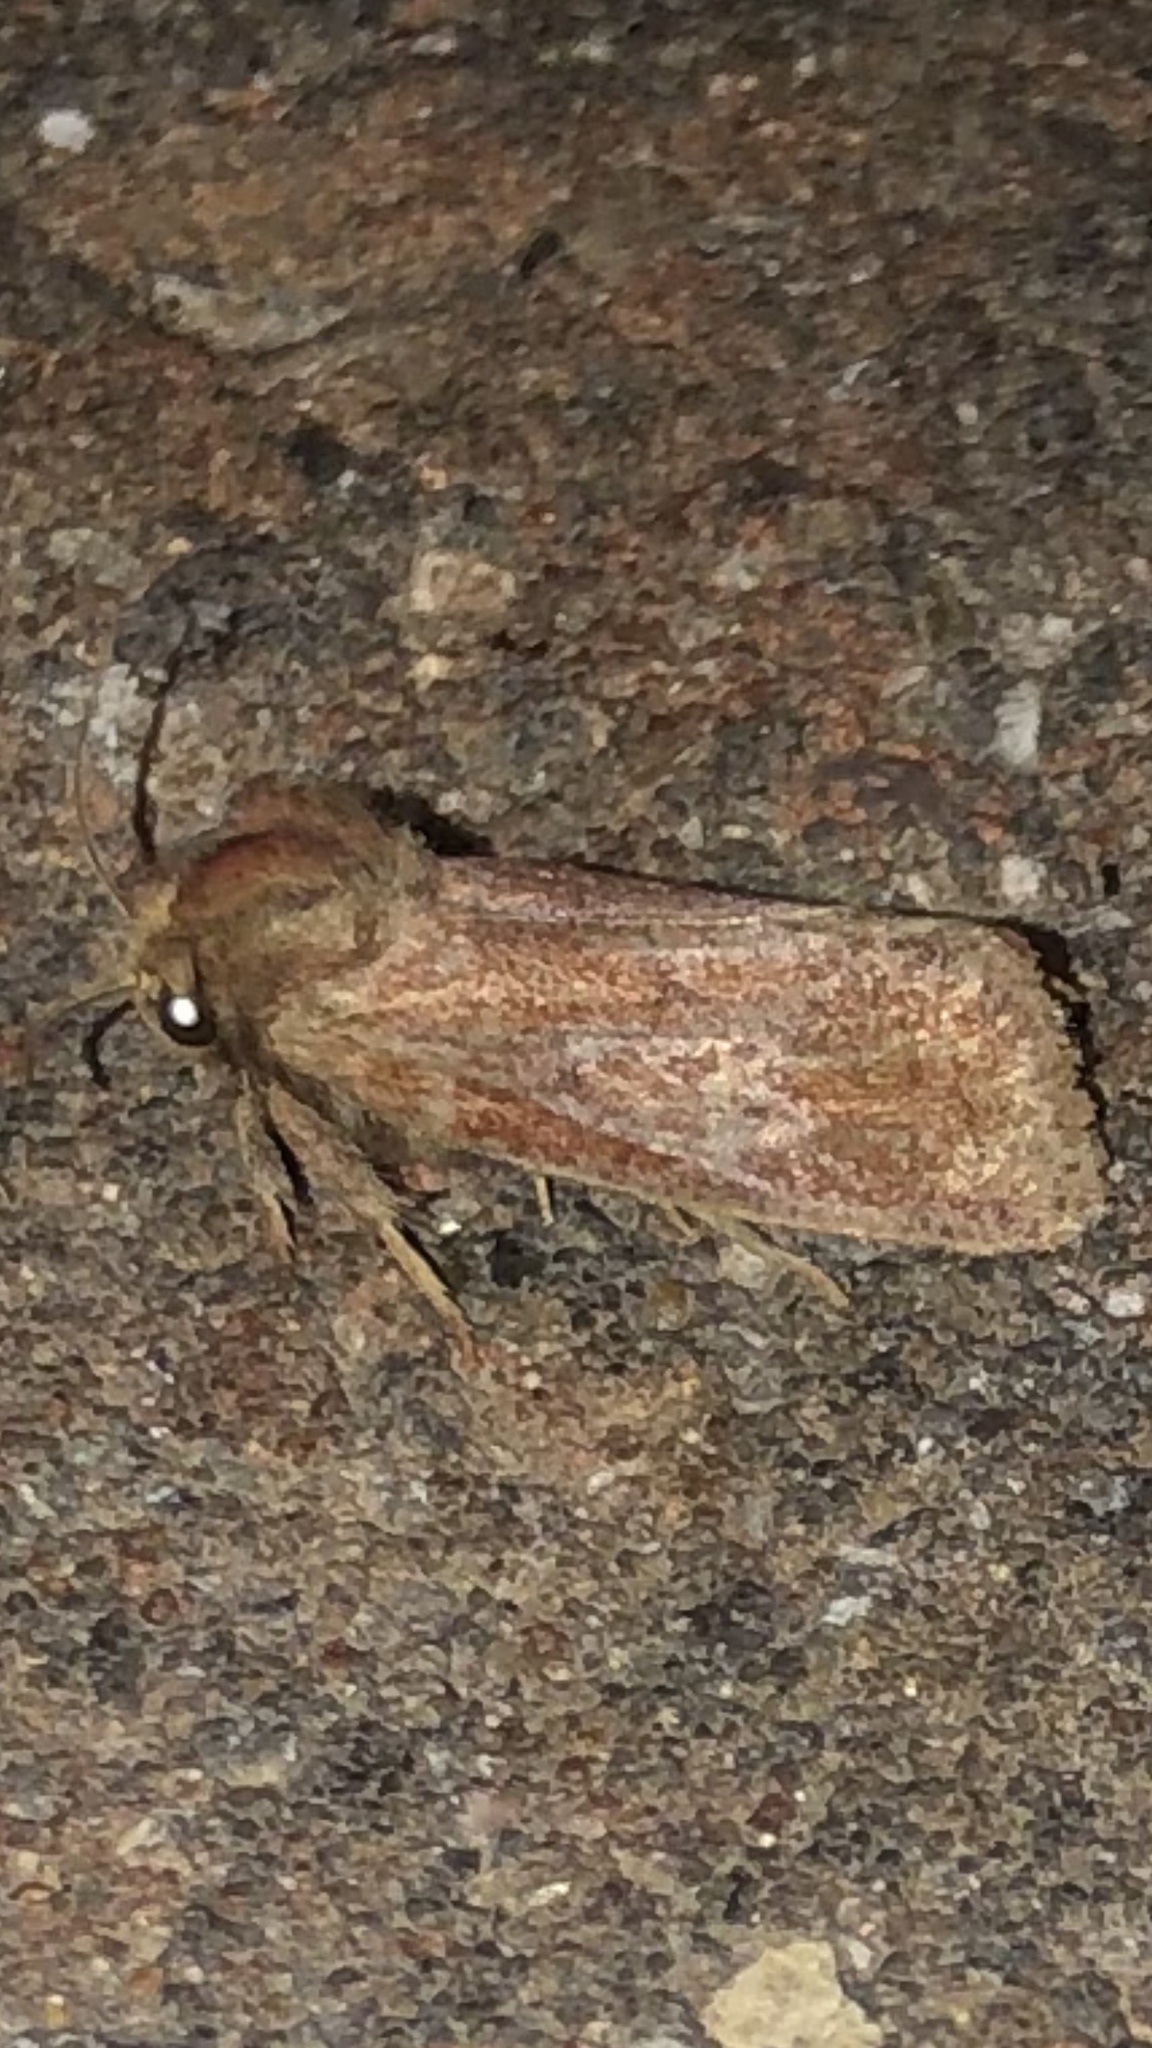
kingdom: Animalia
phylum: Arthropoda
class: Insecta
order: Lepidoptera
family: Tineidae
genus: Acrolophus
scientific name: Acrolophus plumifrontella
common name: Eastern grass tubeworm moth
